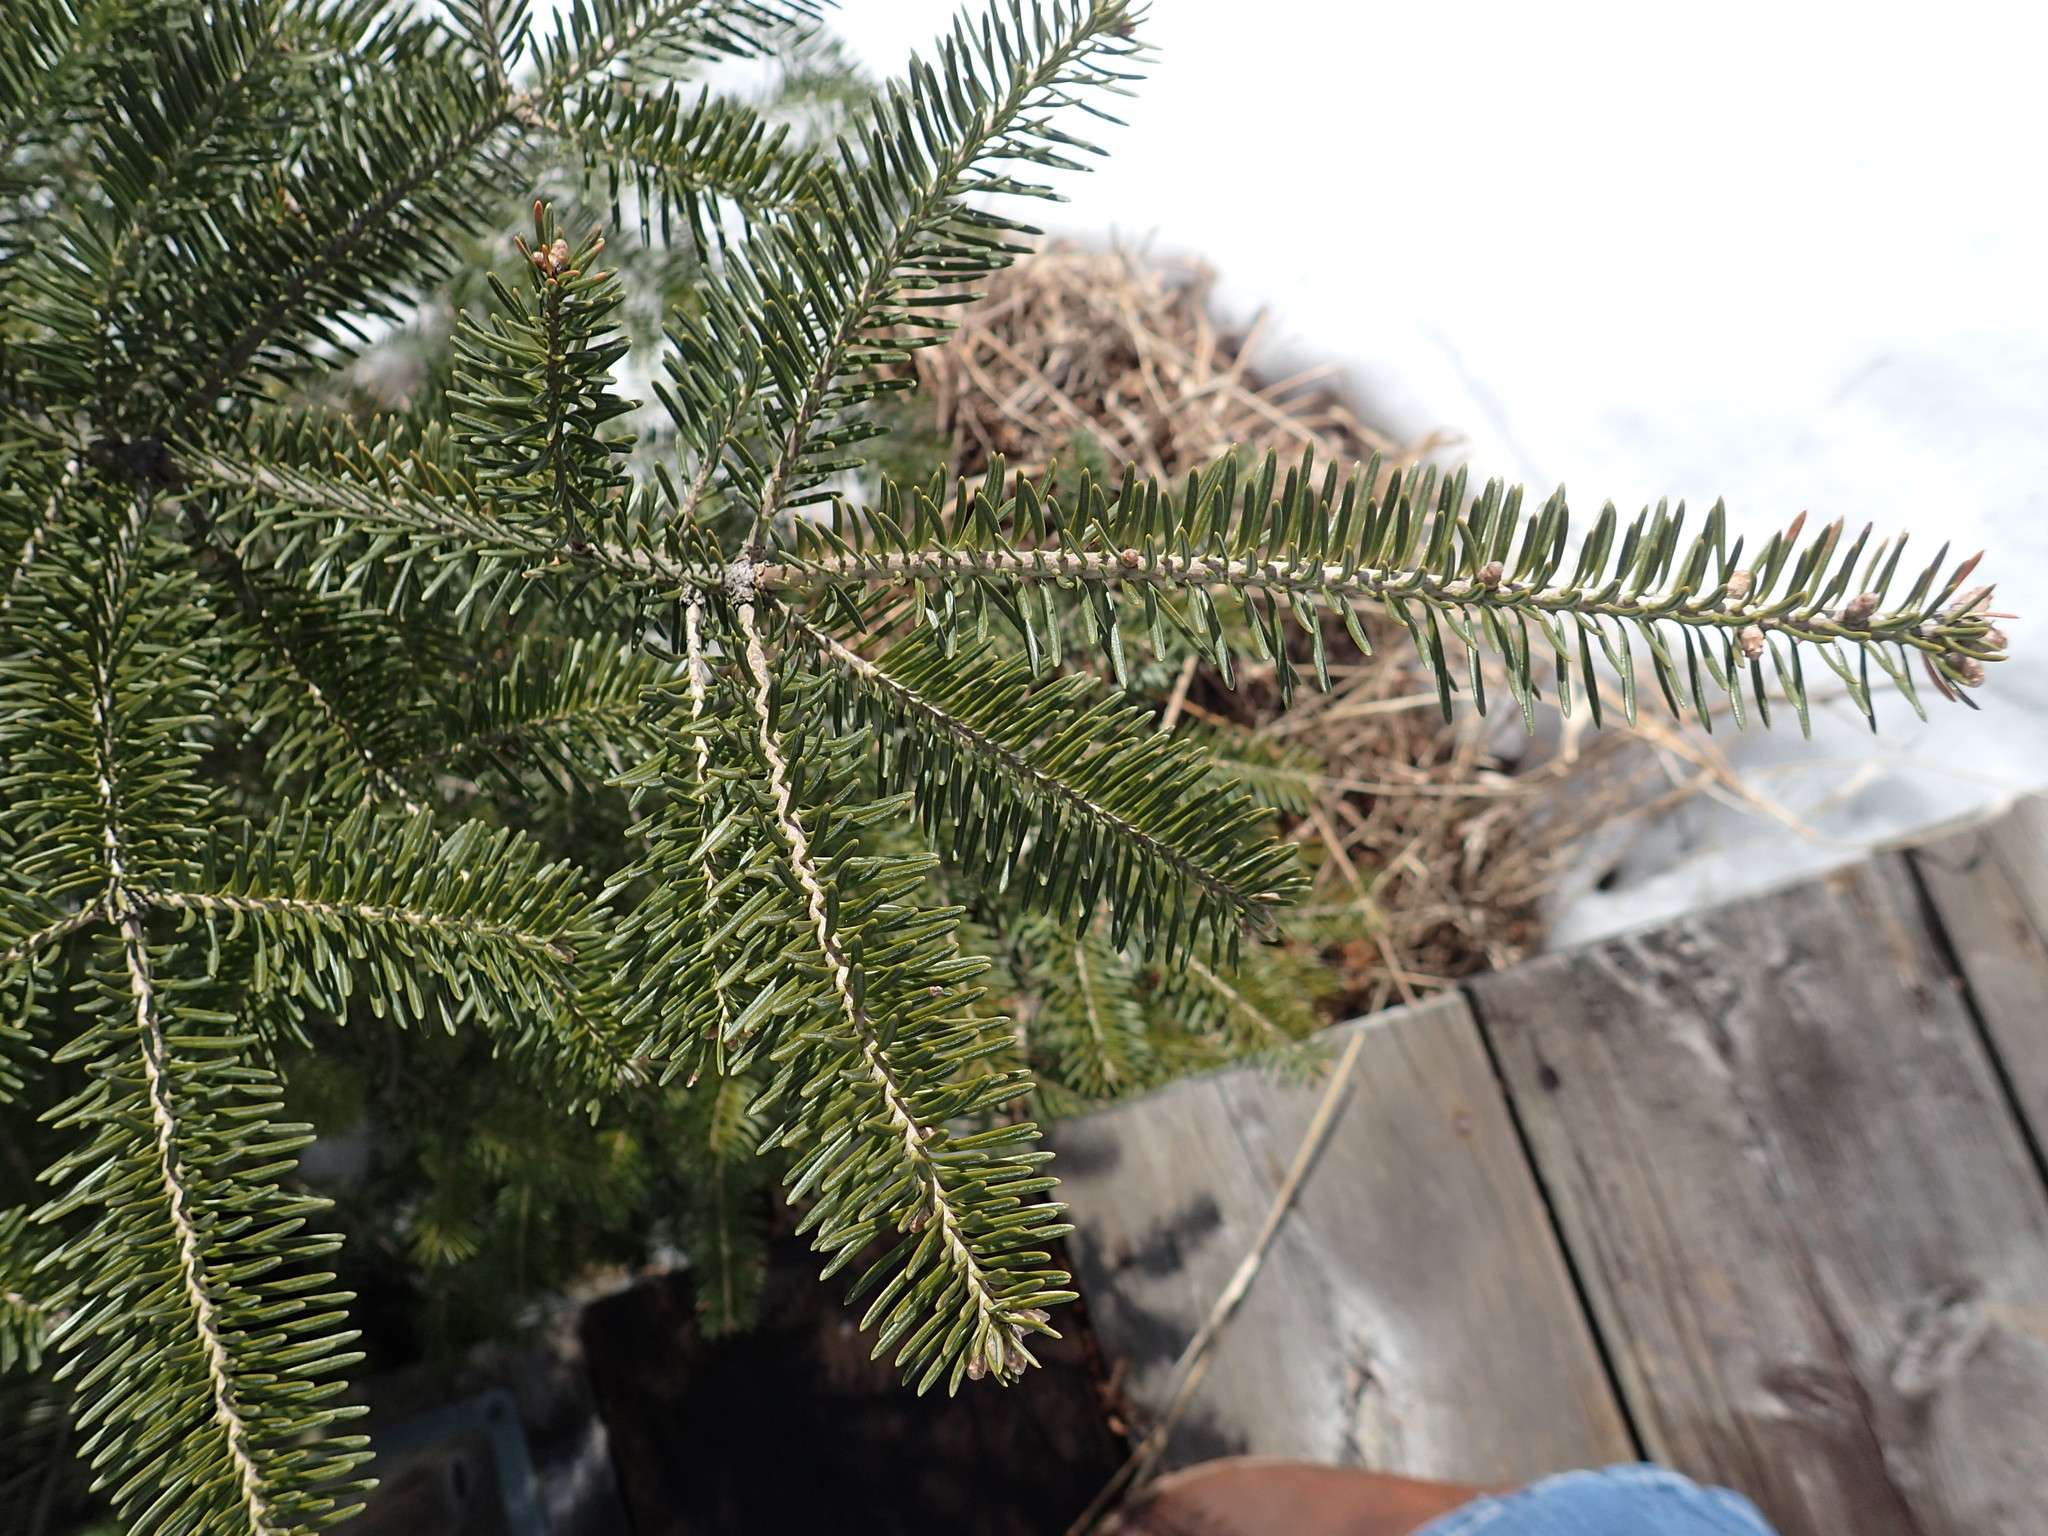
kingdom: Plantae
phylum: Tracheophyta
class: Pinopsida
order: Pinales
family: Pinaceae
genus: Abies
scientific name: Abies balsamea
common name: Balsam fir
